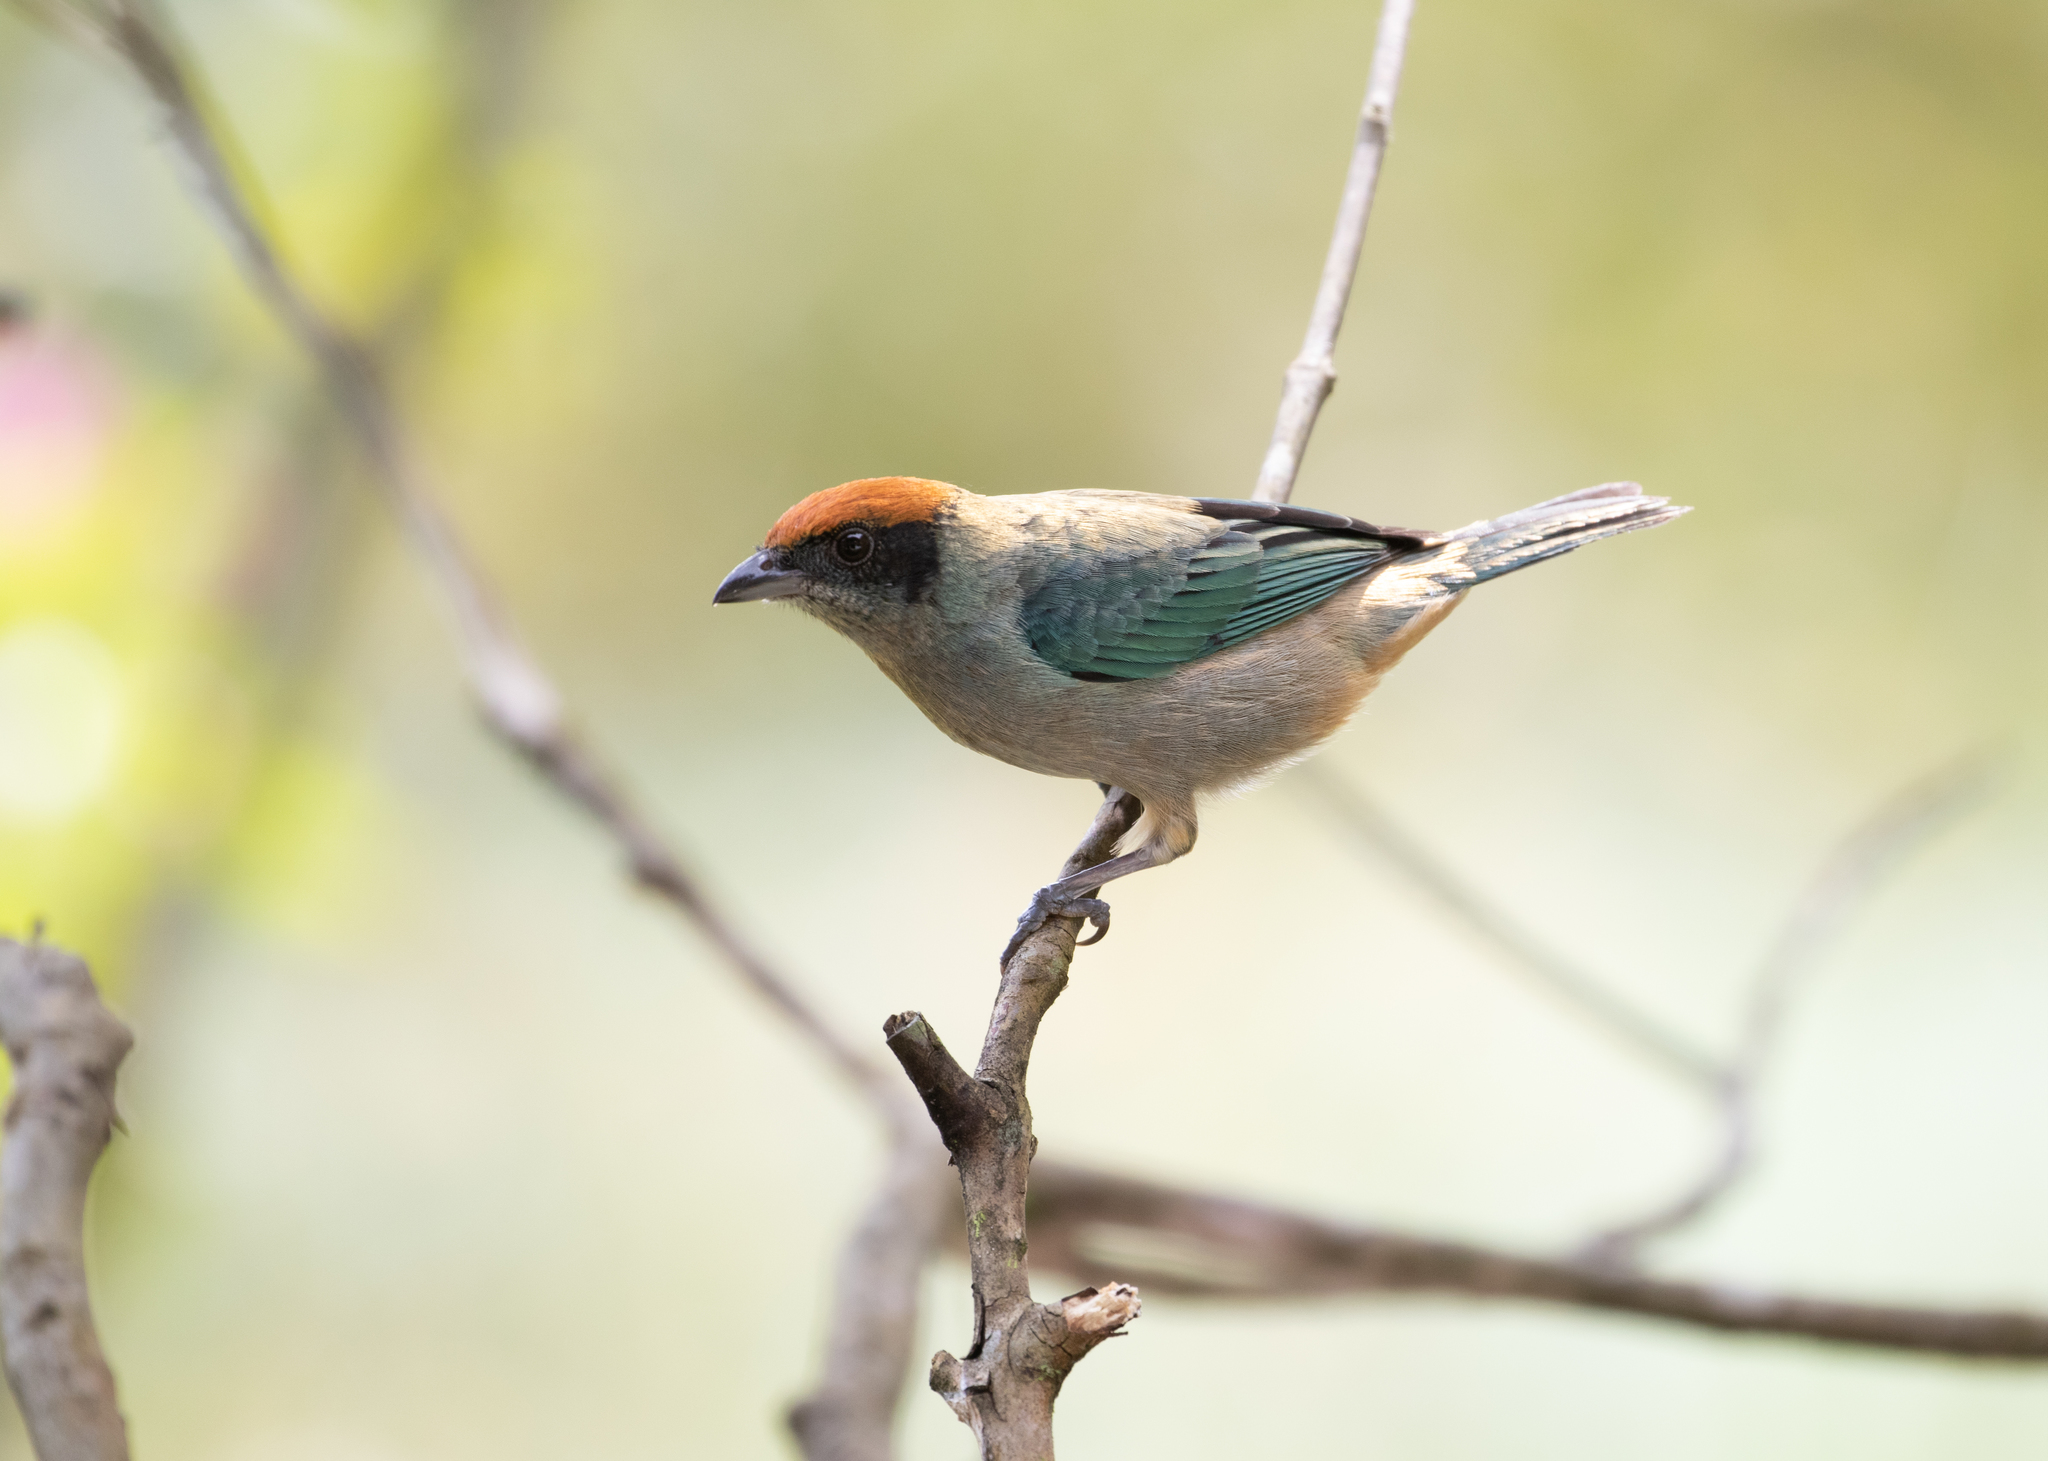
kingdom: Animalia
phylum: Chordata
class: Aves
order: Passeriformes
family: Thraupidae
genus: Stilpnia
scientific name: Stilpnia vitriolina
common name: Scrub tanager
